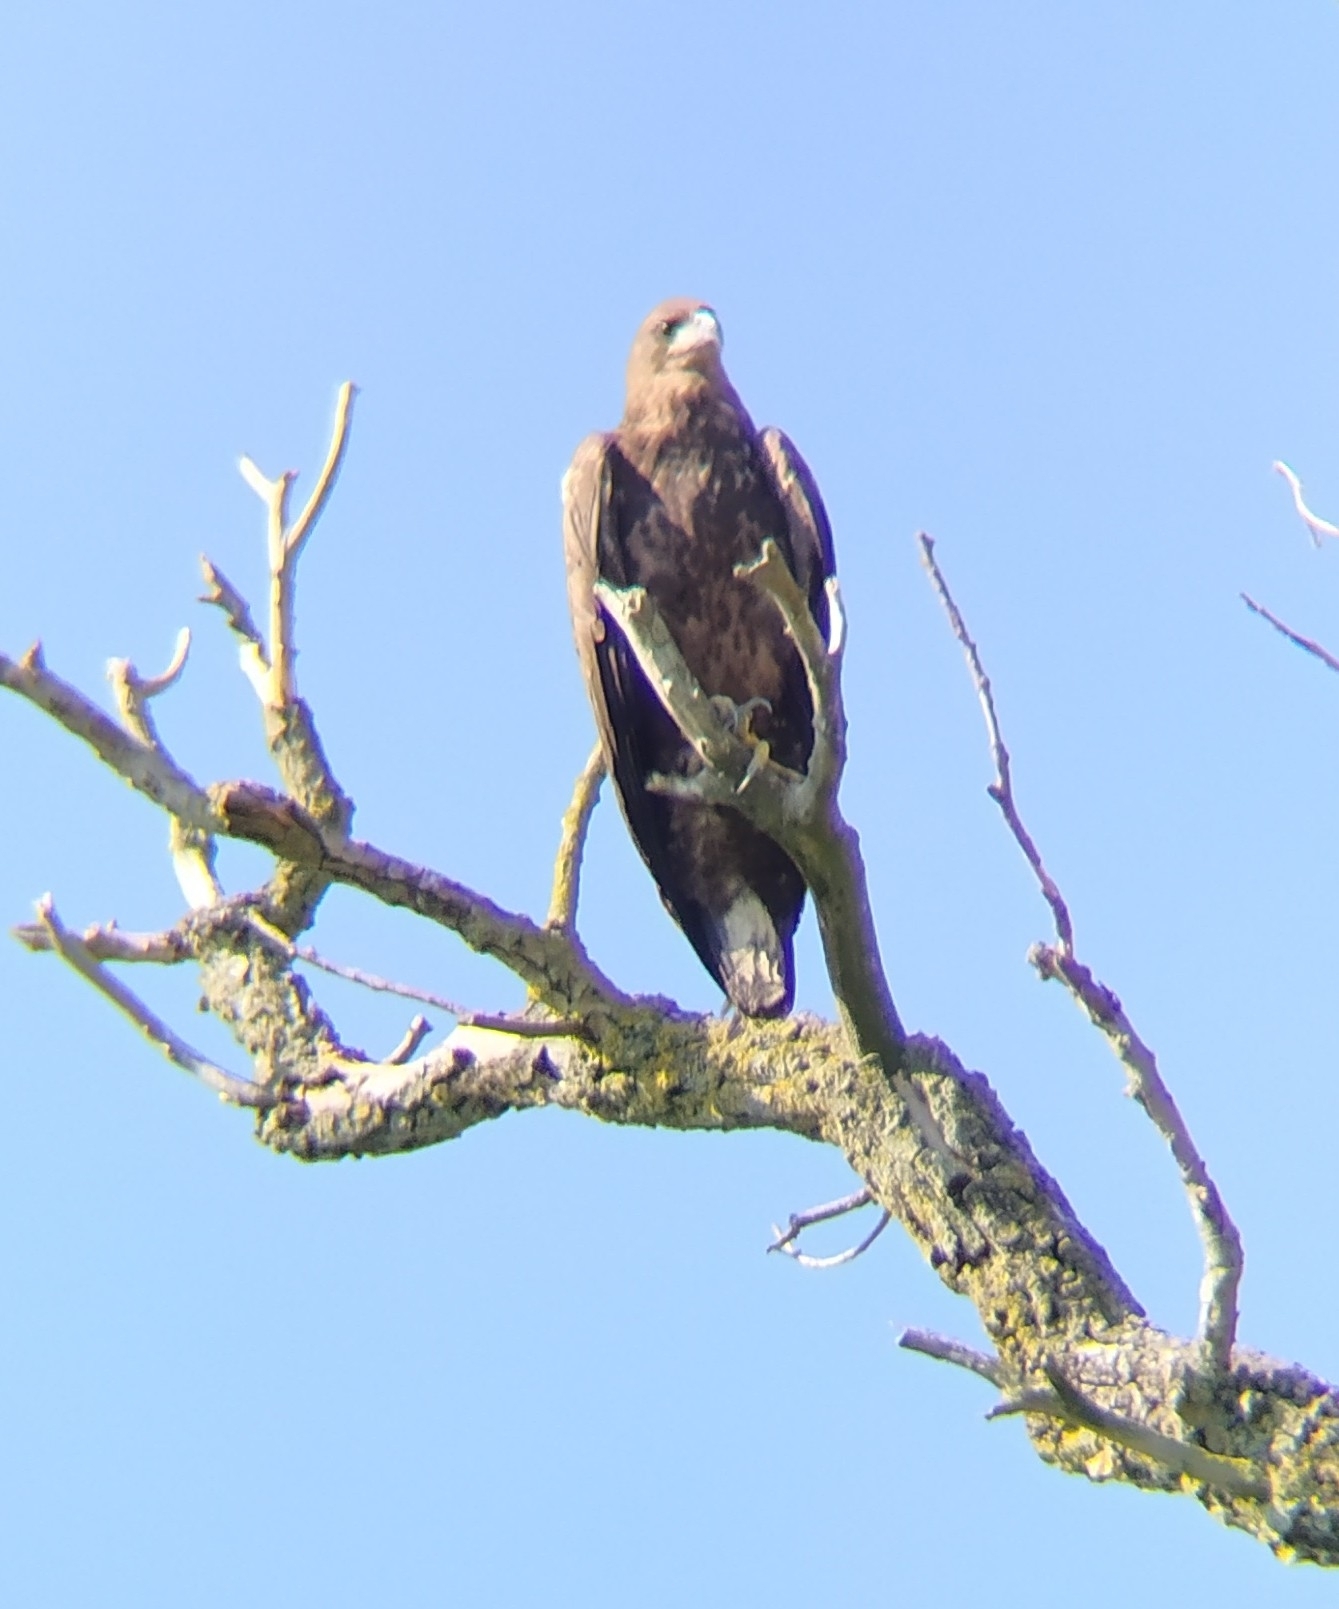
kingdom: Animalia
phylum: Chordata
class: Aves
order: Accipitriformes
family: Accipitridae
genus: Haliaeetus
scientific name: Haliaeetus albicilla
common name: White-tailed eagle
